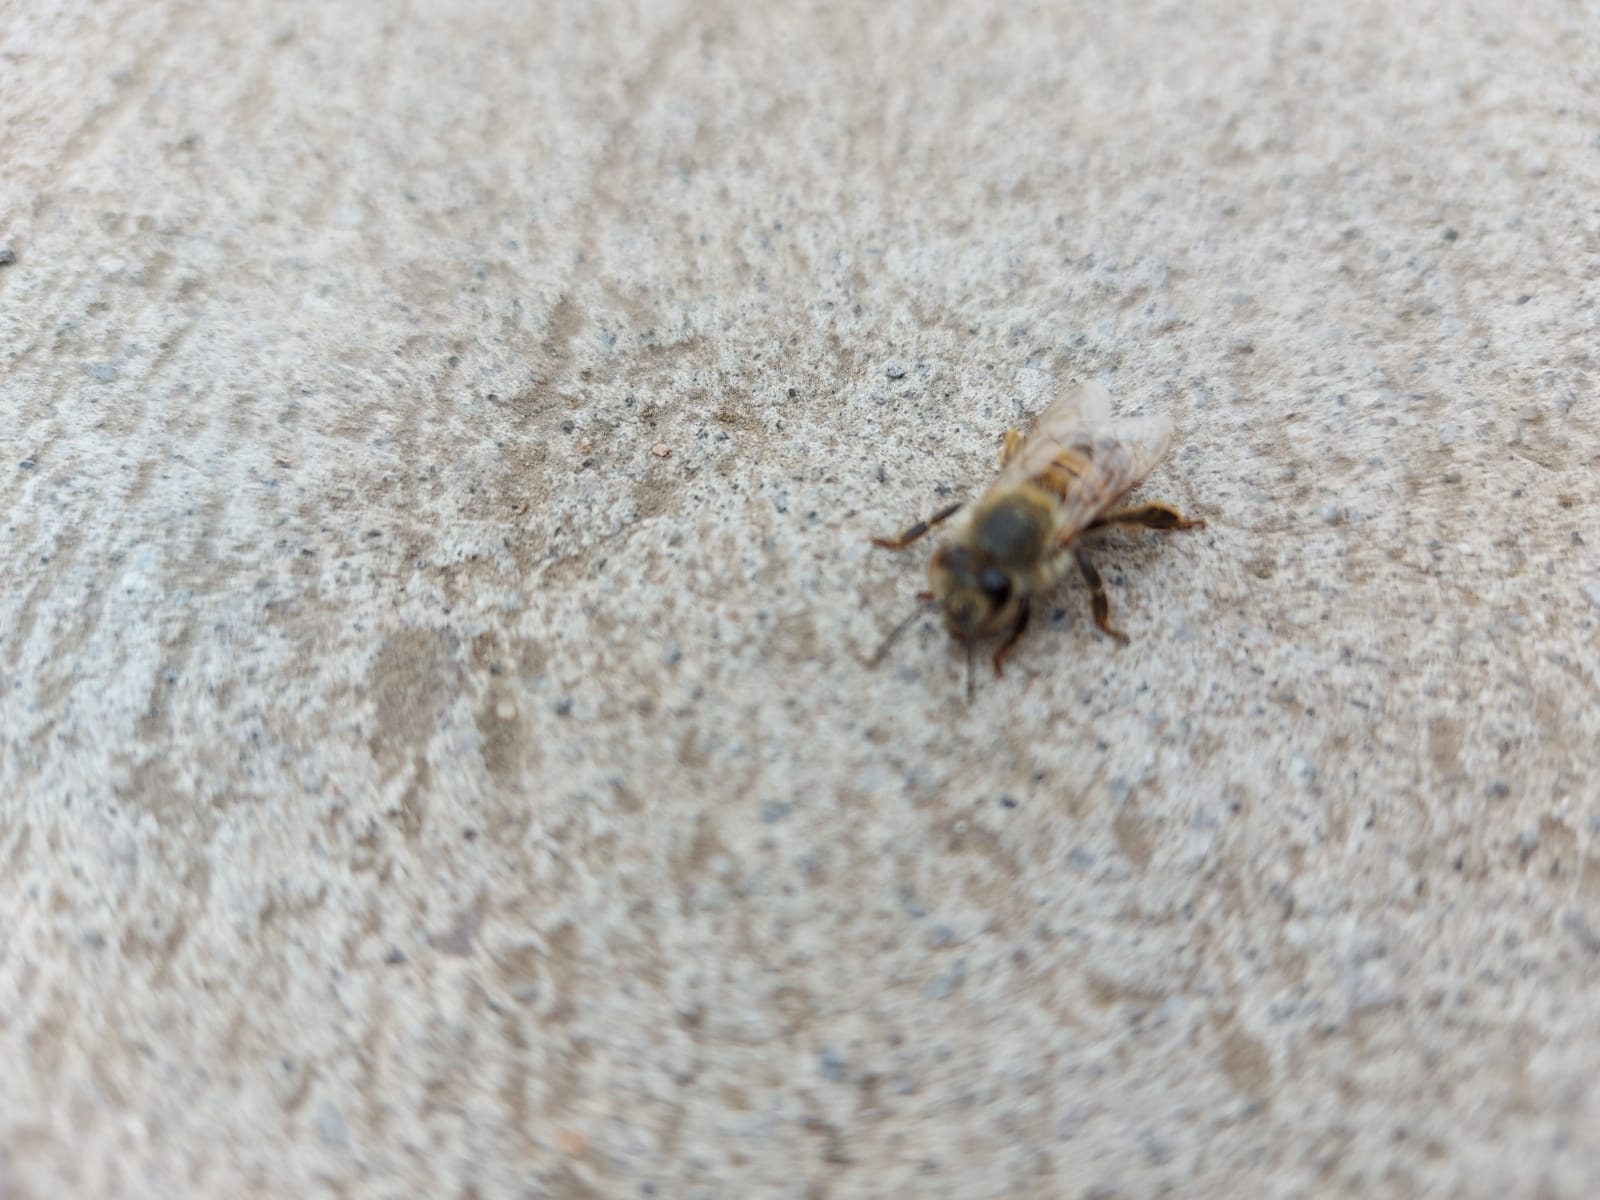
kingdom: Animalia
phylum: Arthropoda
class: Insecta
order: Hymenoptera
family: Apidae
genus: Apis
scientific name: Apis mellifera
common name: Honey bee
